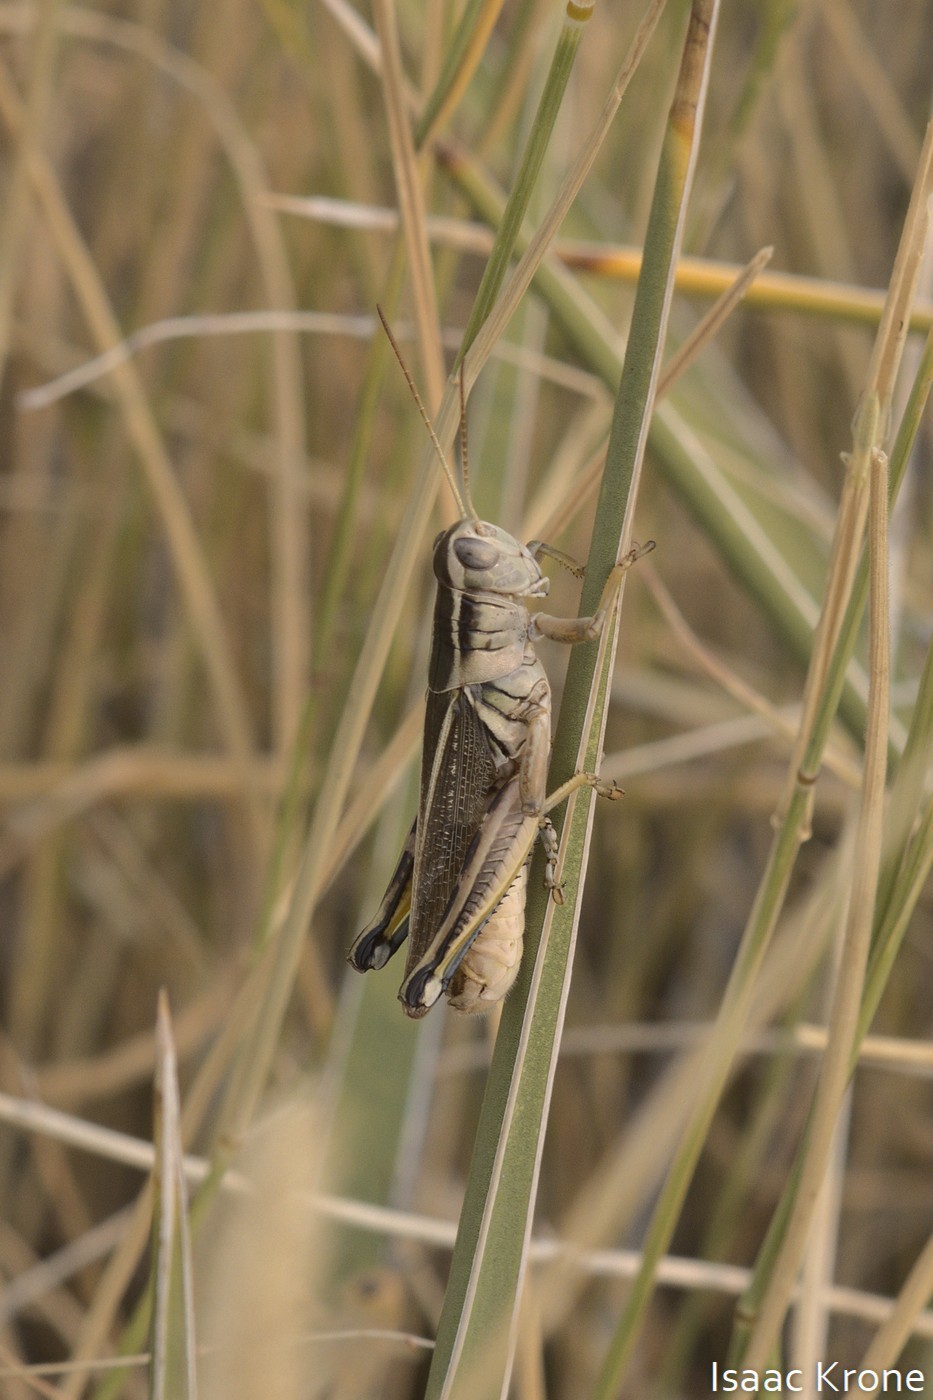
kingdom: Animalia
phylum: Arthropoda
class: Insecta
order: Orthoptera
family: Acrididae
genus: Melanoplus
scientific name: Melanoplus bivittatus
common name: Two-striped grasshopper
